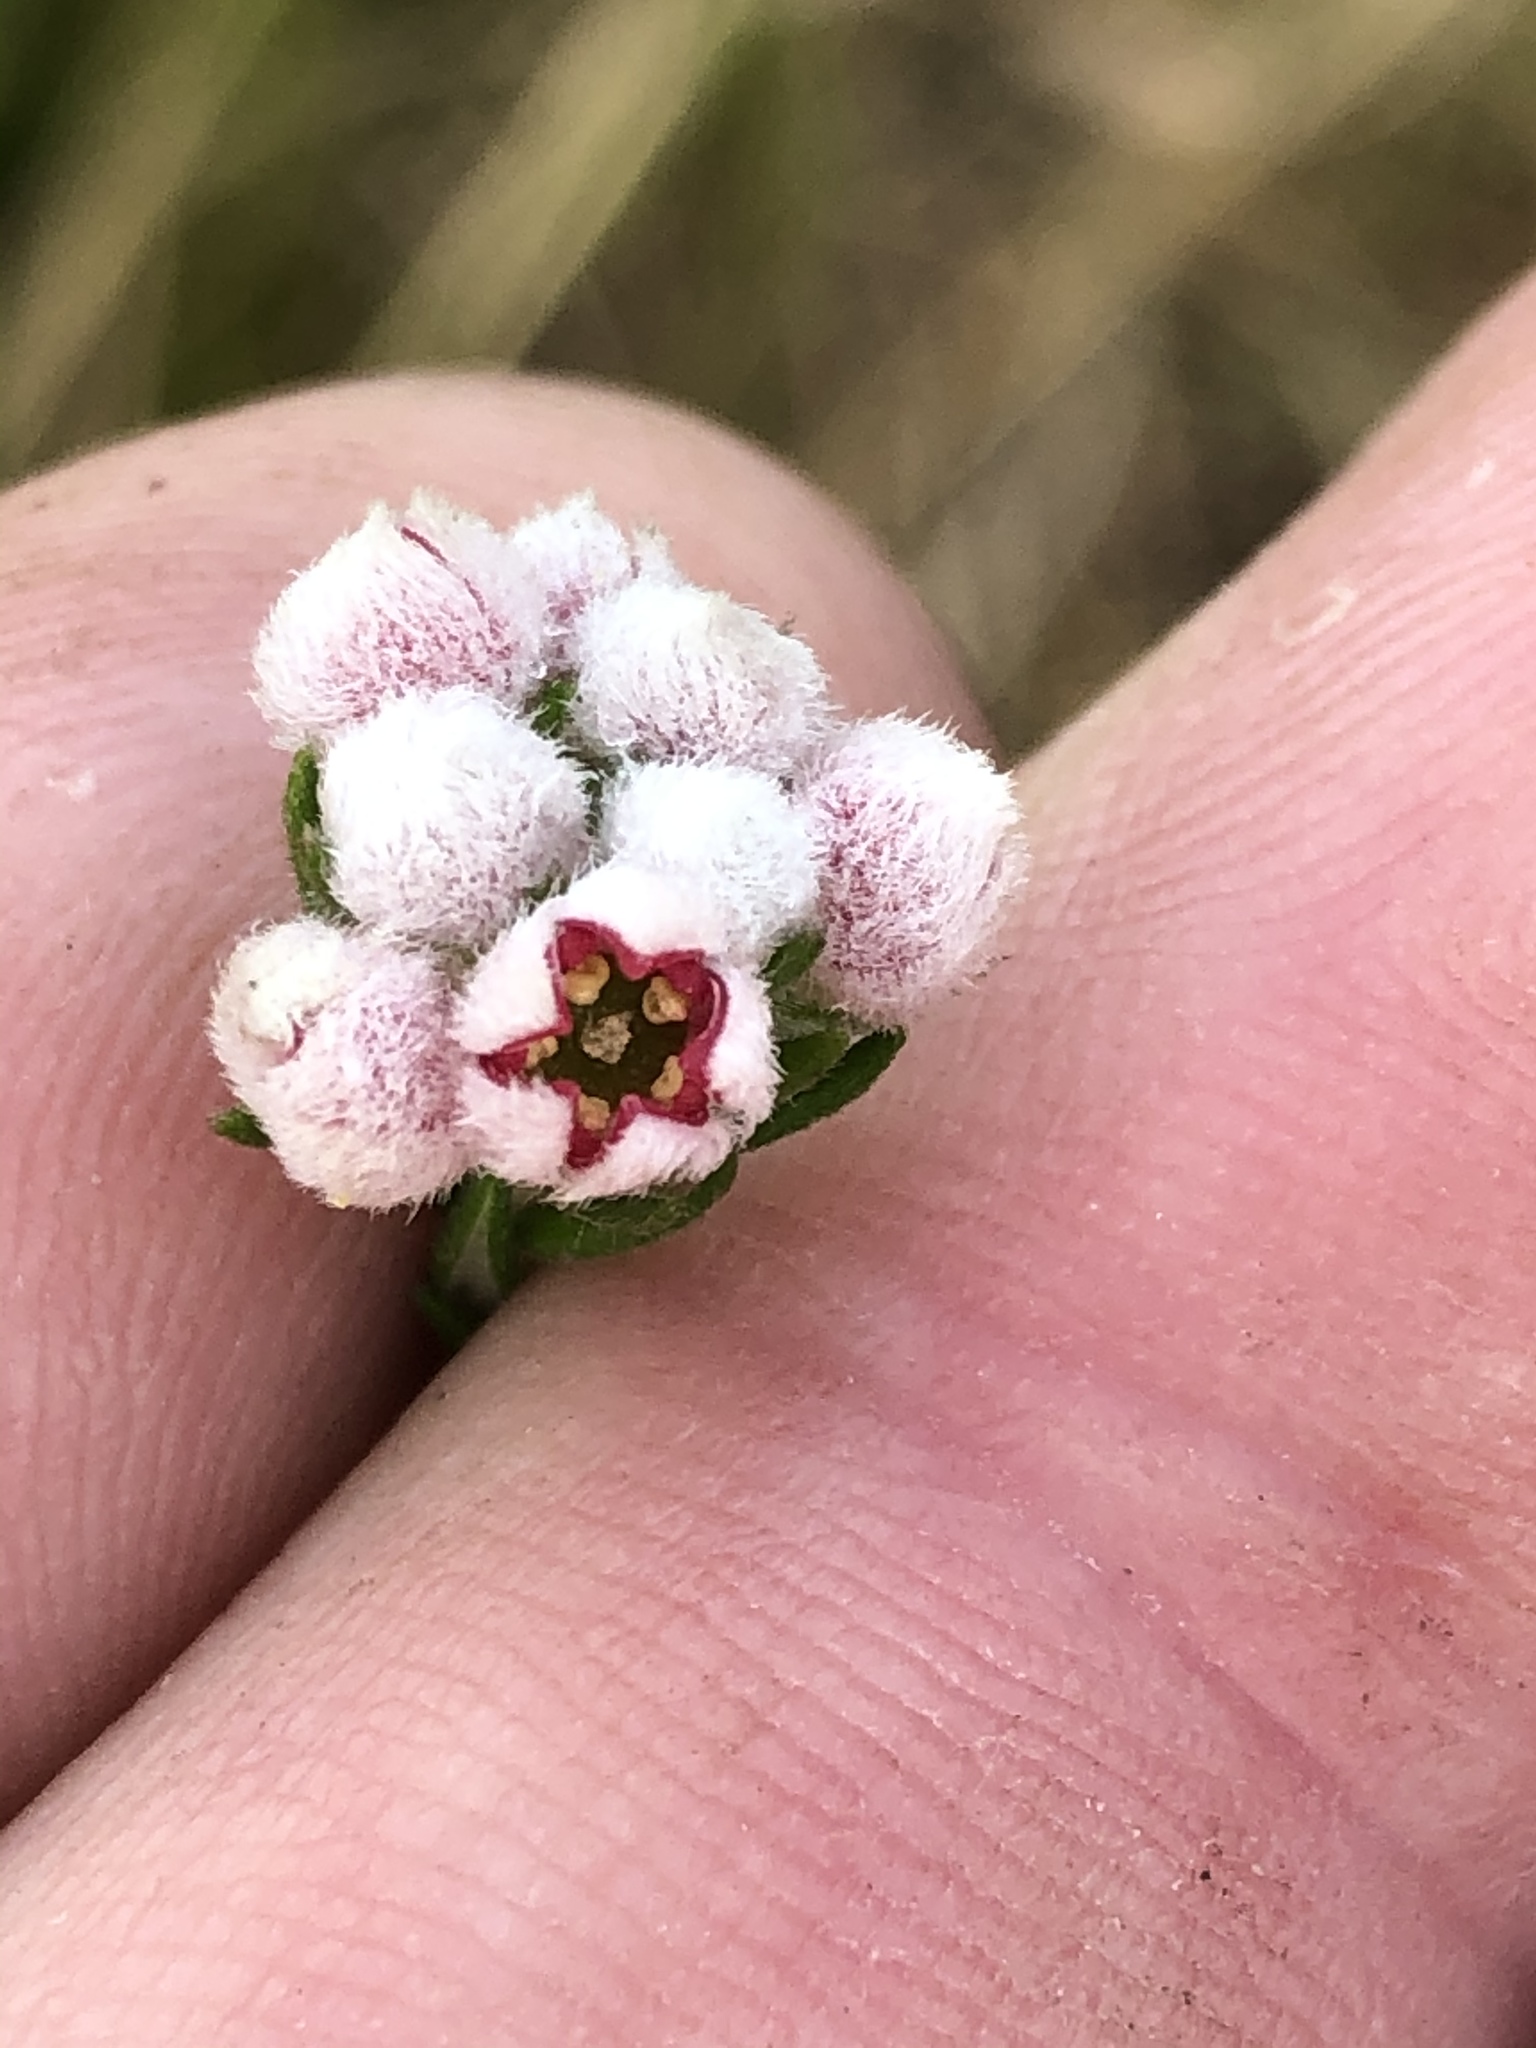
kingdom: Plantae
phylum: Tracheophyta
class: Magnoliopsida
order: Rosales
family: Rhamnaceae
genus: Phylica
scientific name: Phylica purpurea
